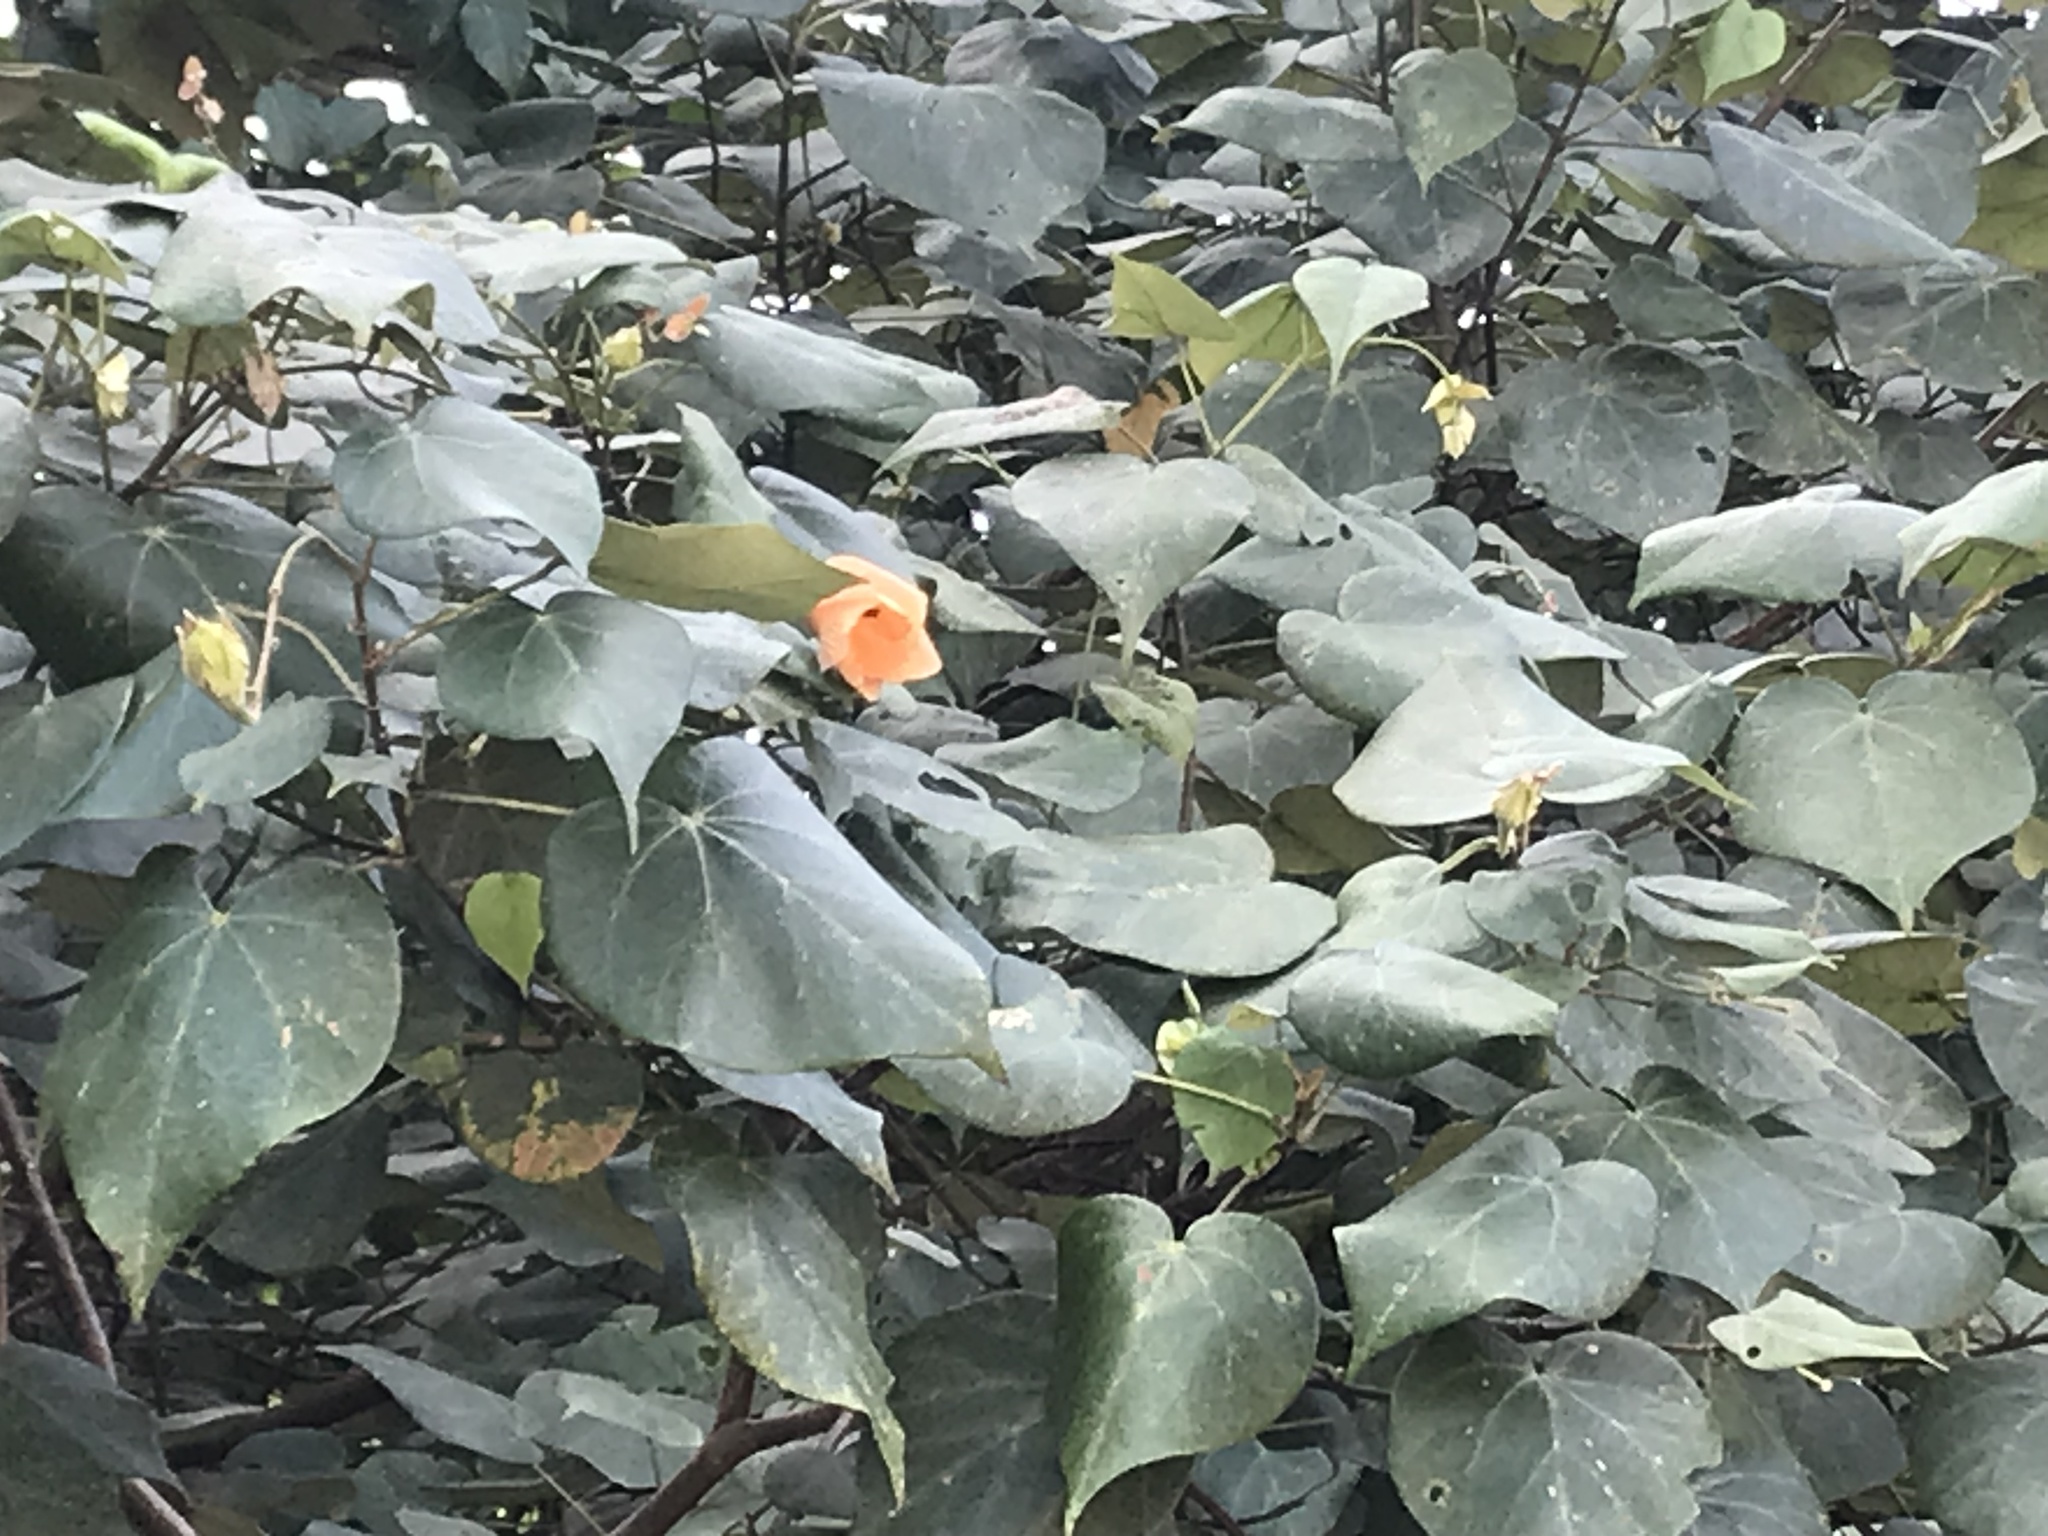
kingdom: Plantae
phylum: Tracheophyta
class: Magnoliopsida
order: Malvales
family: Malvaceae
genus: Talipariti
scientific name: Talipariti tiliaceum
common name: Sea hibiscus
